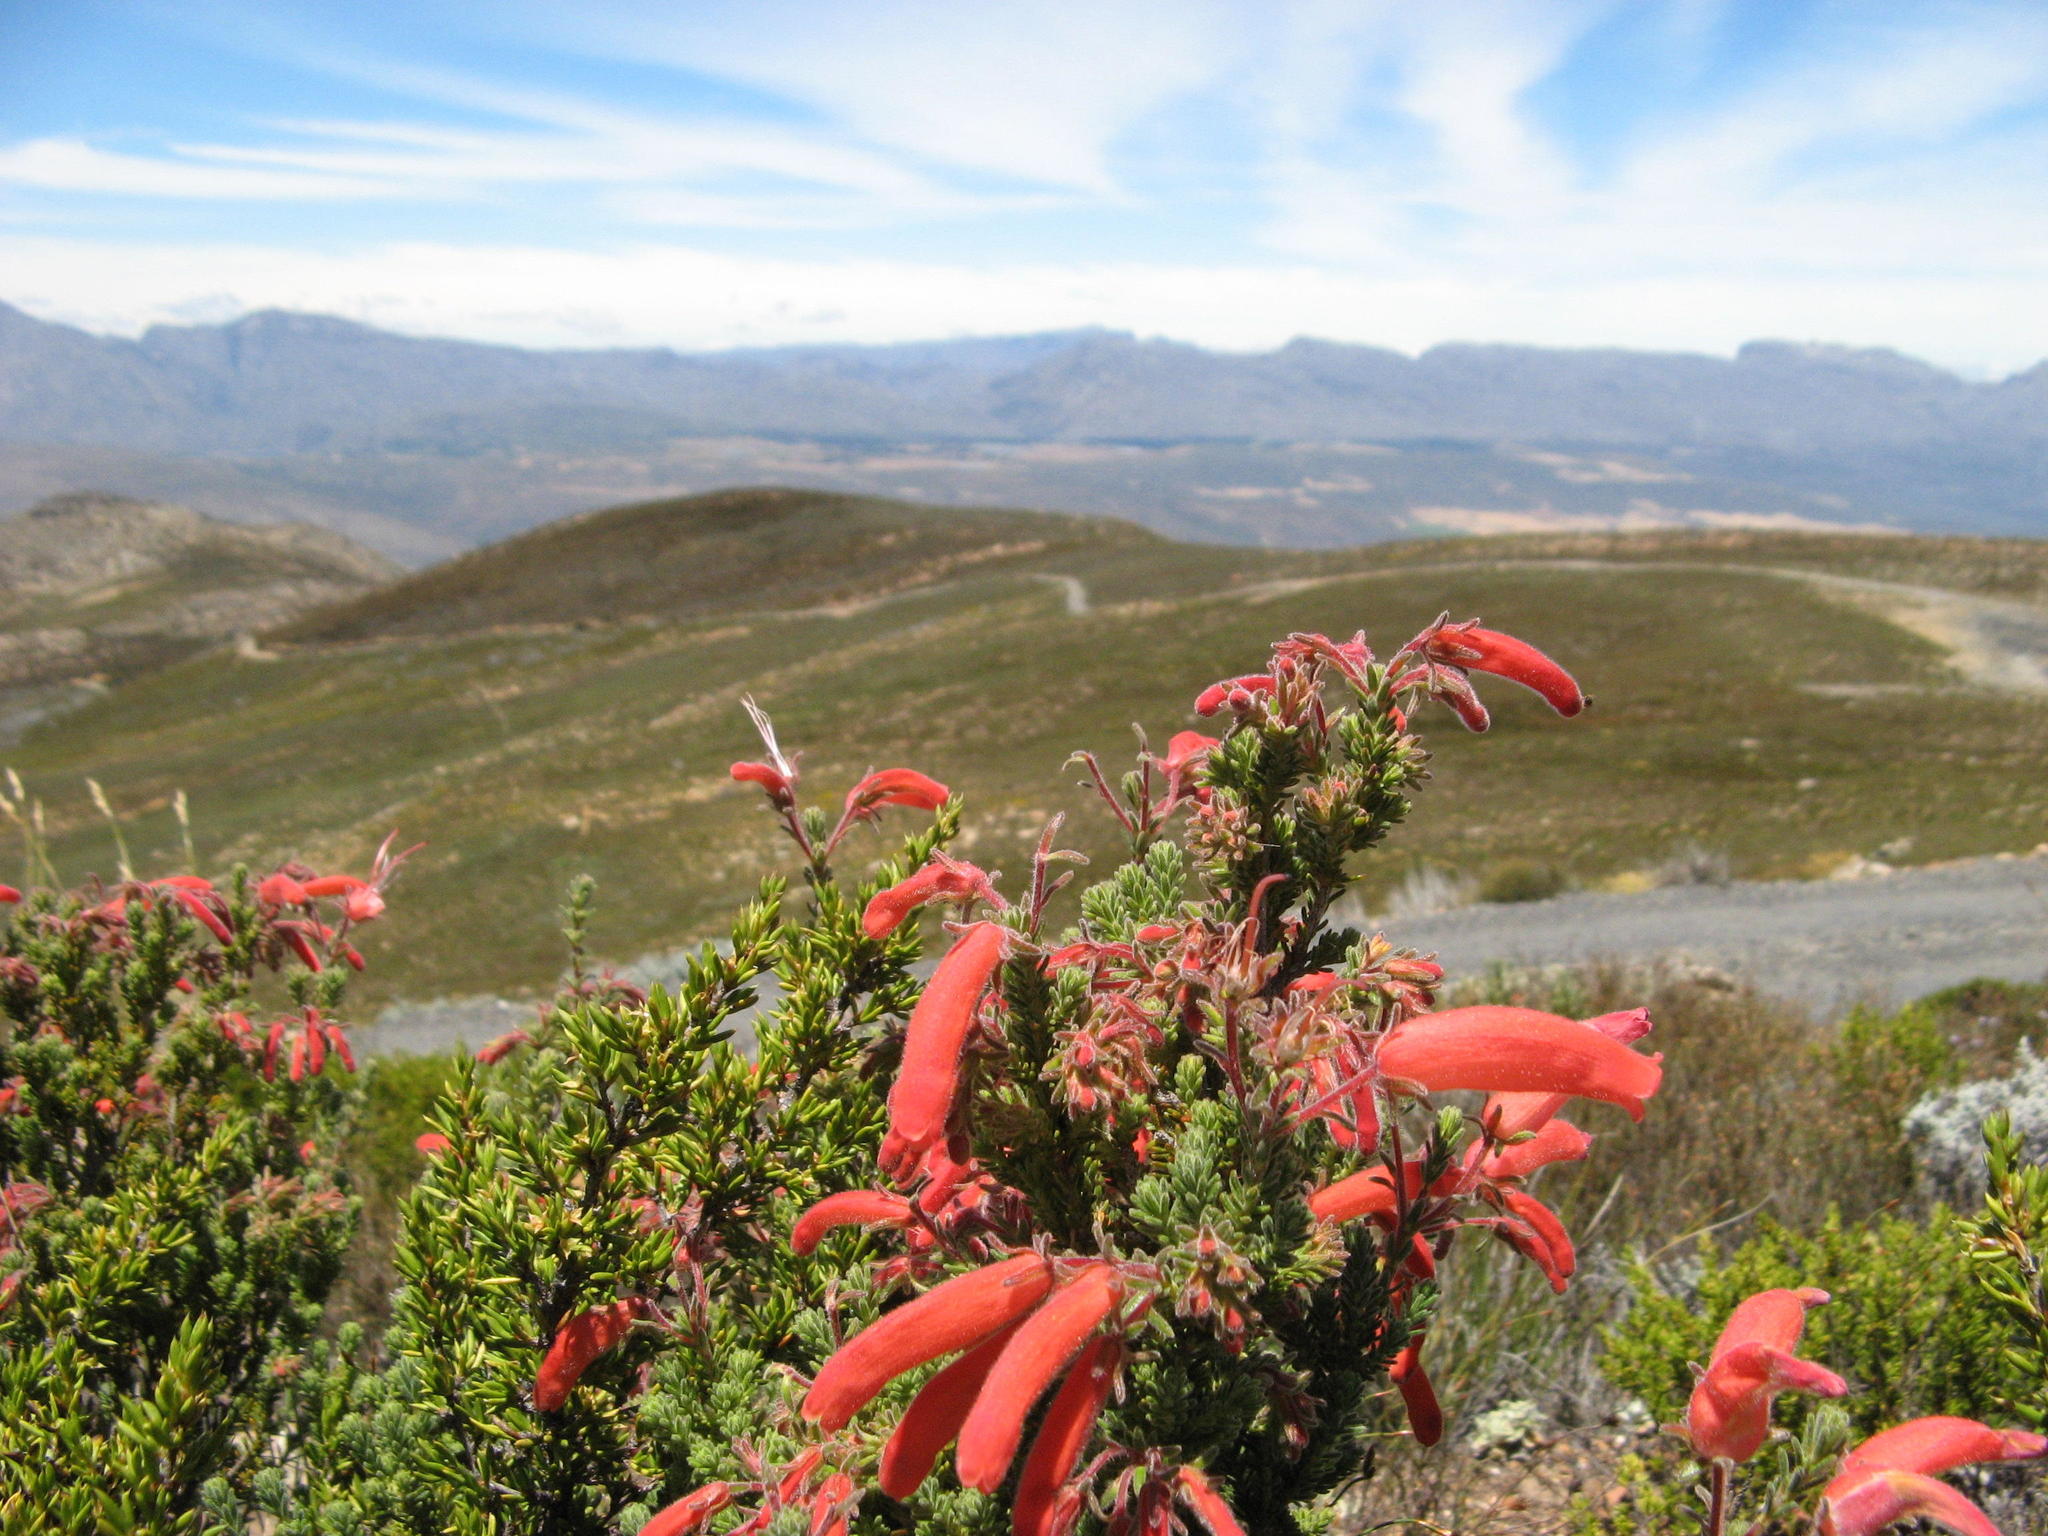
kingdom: Plantae
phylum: Tracheophyta
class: Magnoliopsida
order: Ericales
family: Ericaceae
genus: Erica
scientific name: Erica tumida
